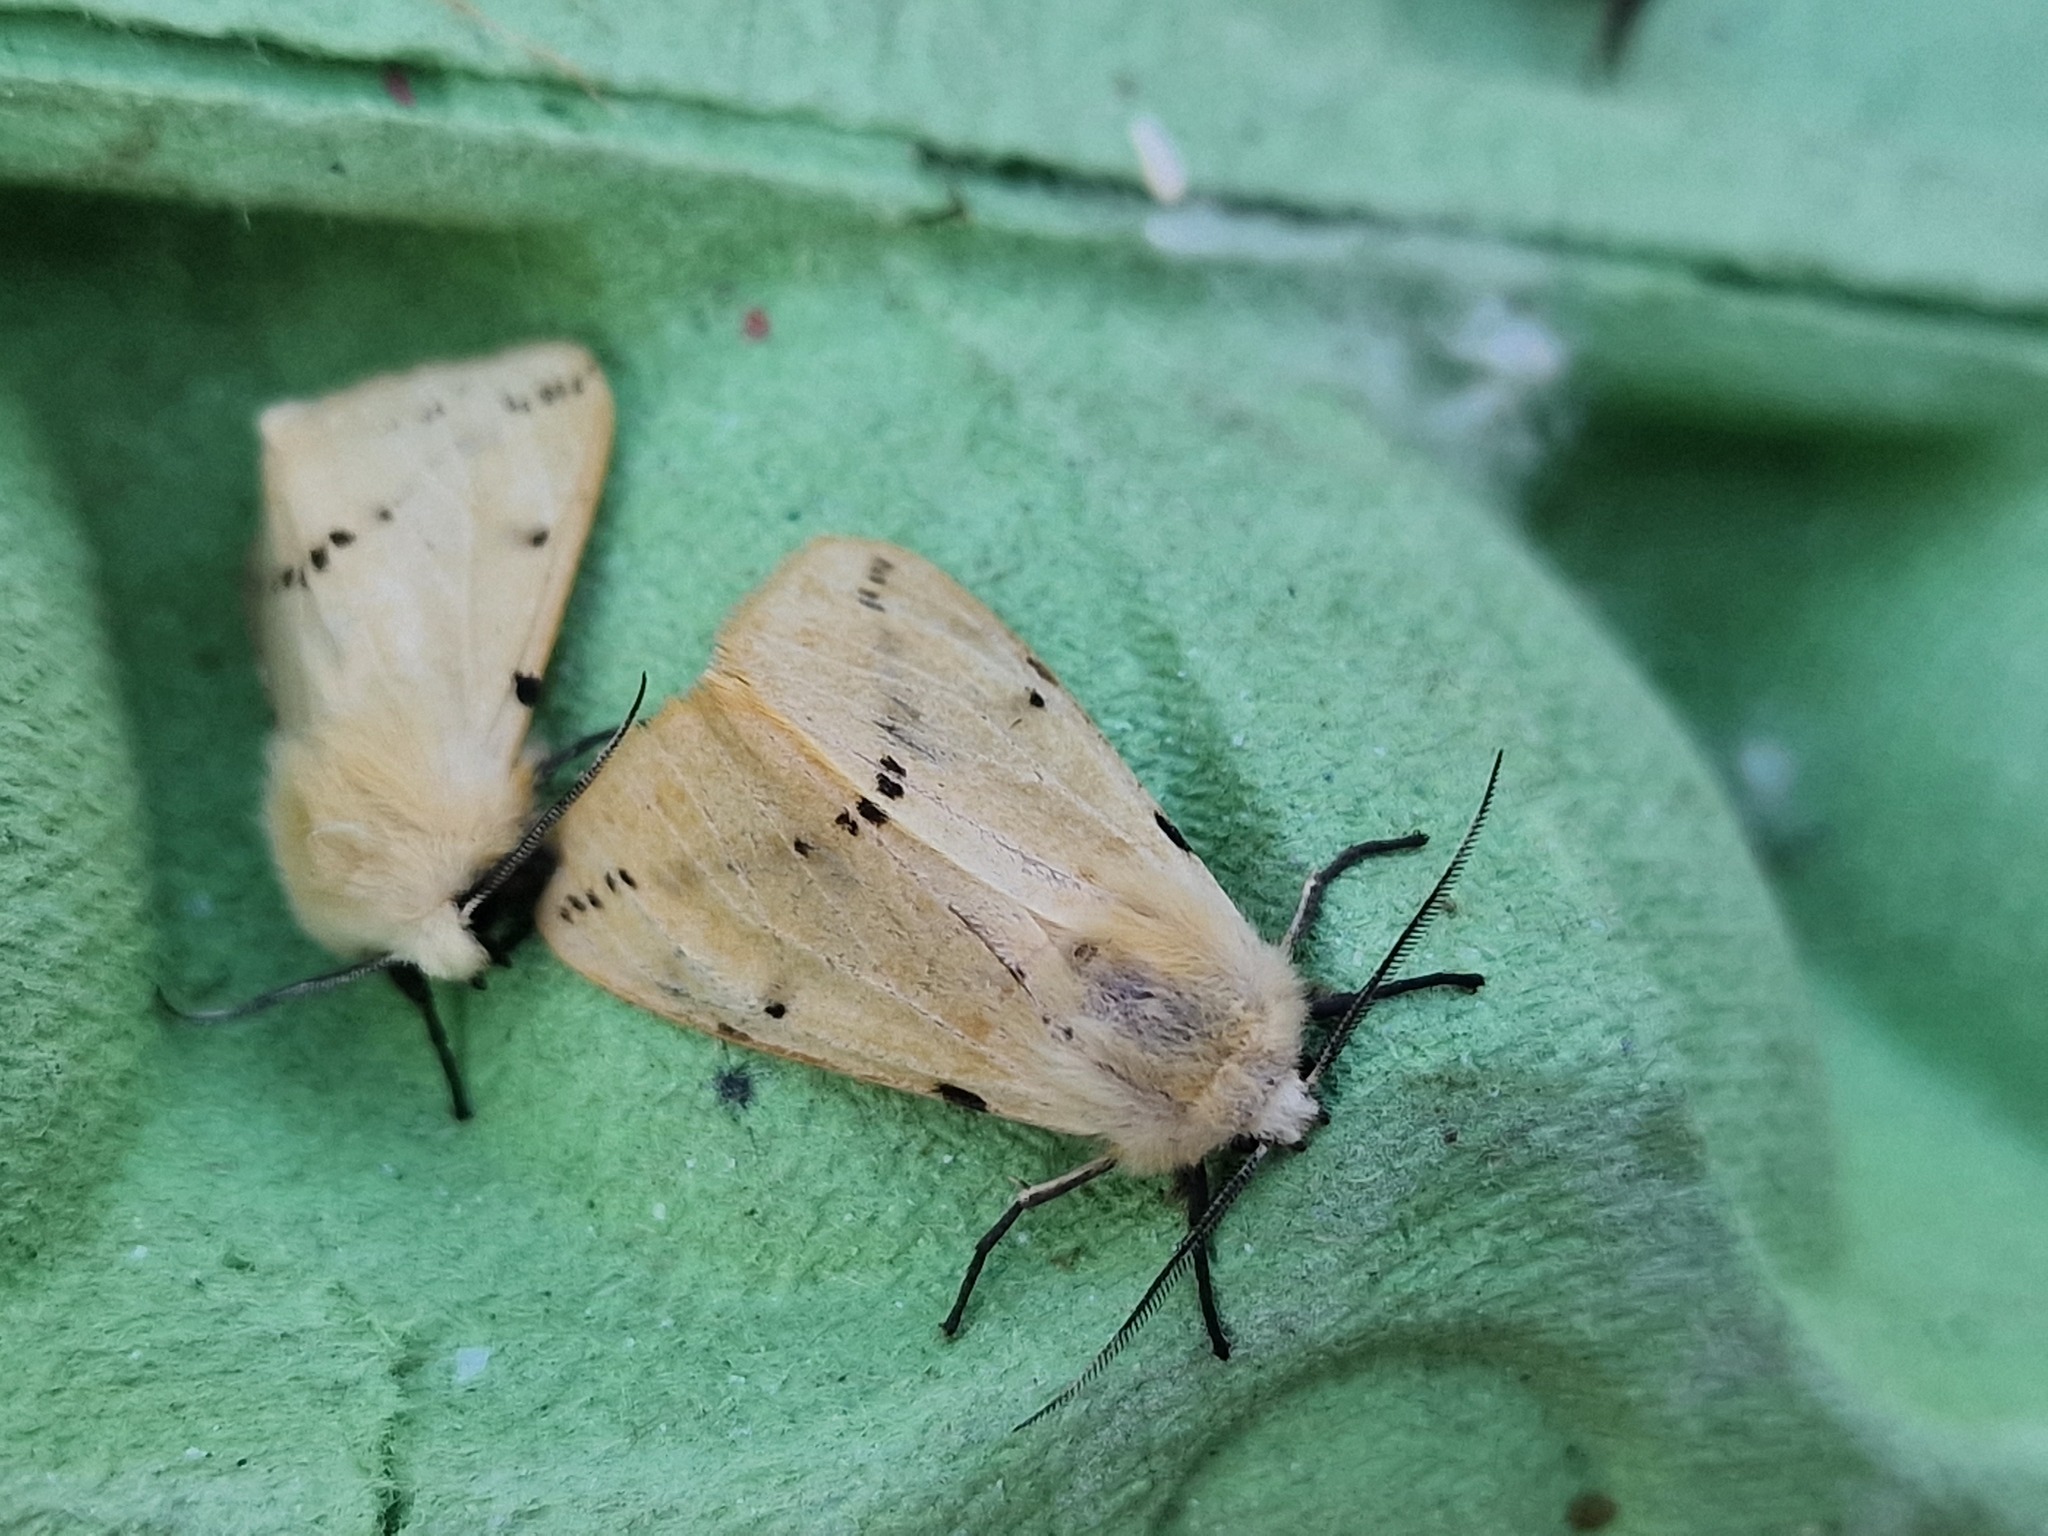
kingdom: Animalia
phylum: Arthropoda
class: Insecta
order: Lepidoptera
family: Erebidae
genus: Spilarctia
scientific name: Spilarctia lutea
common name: Buff ermine
